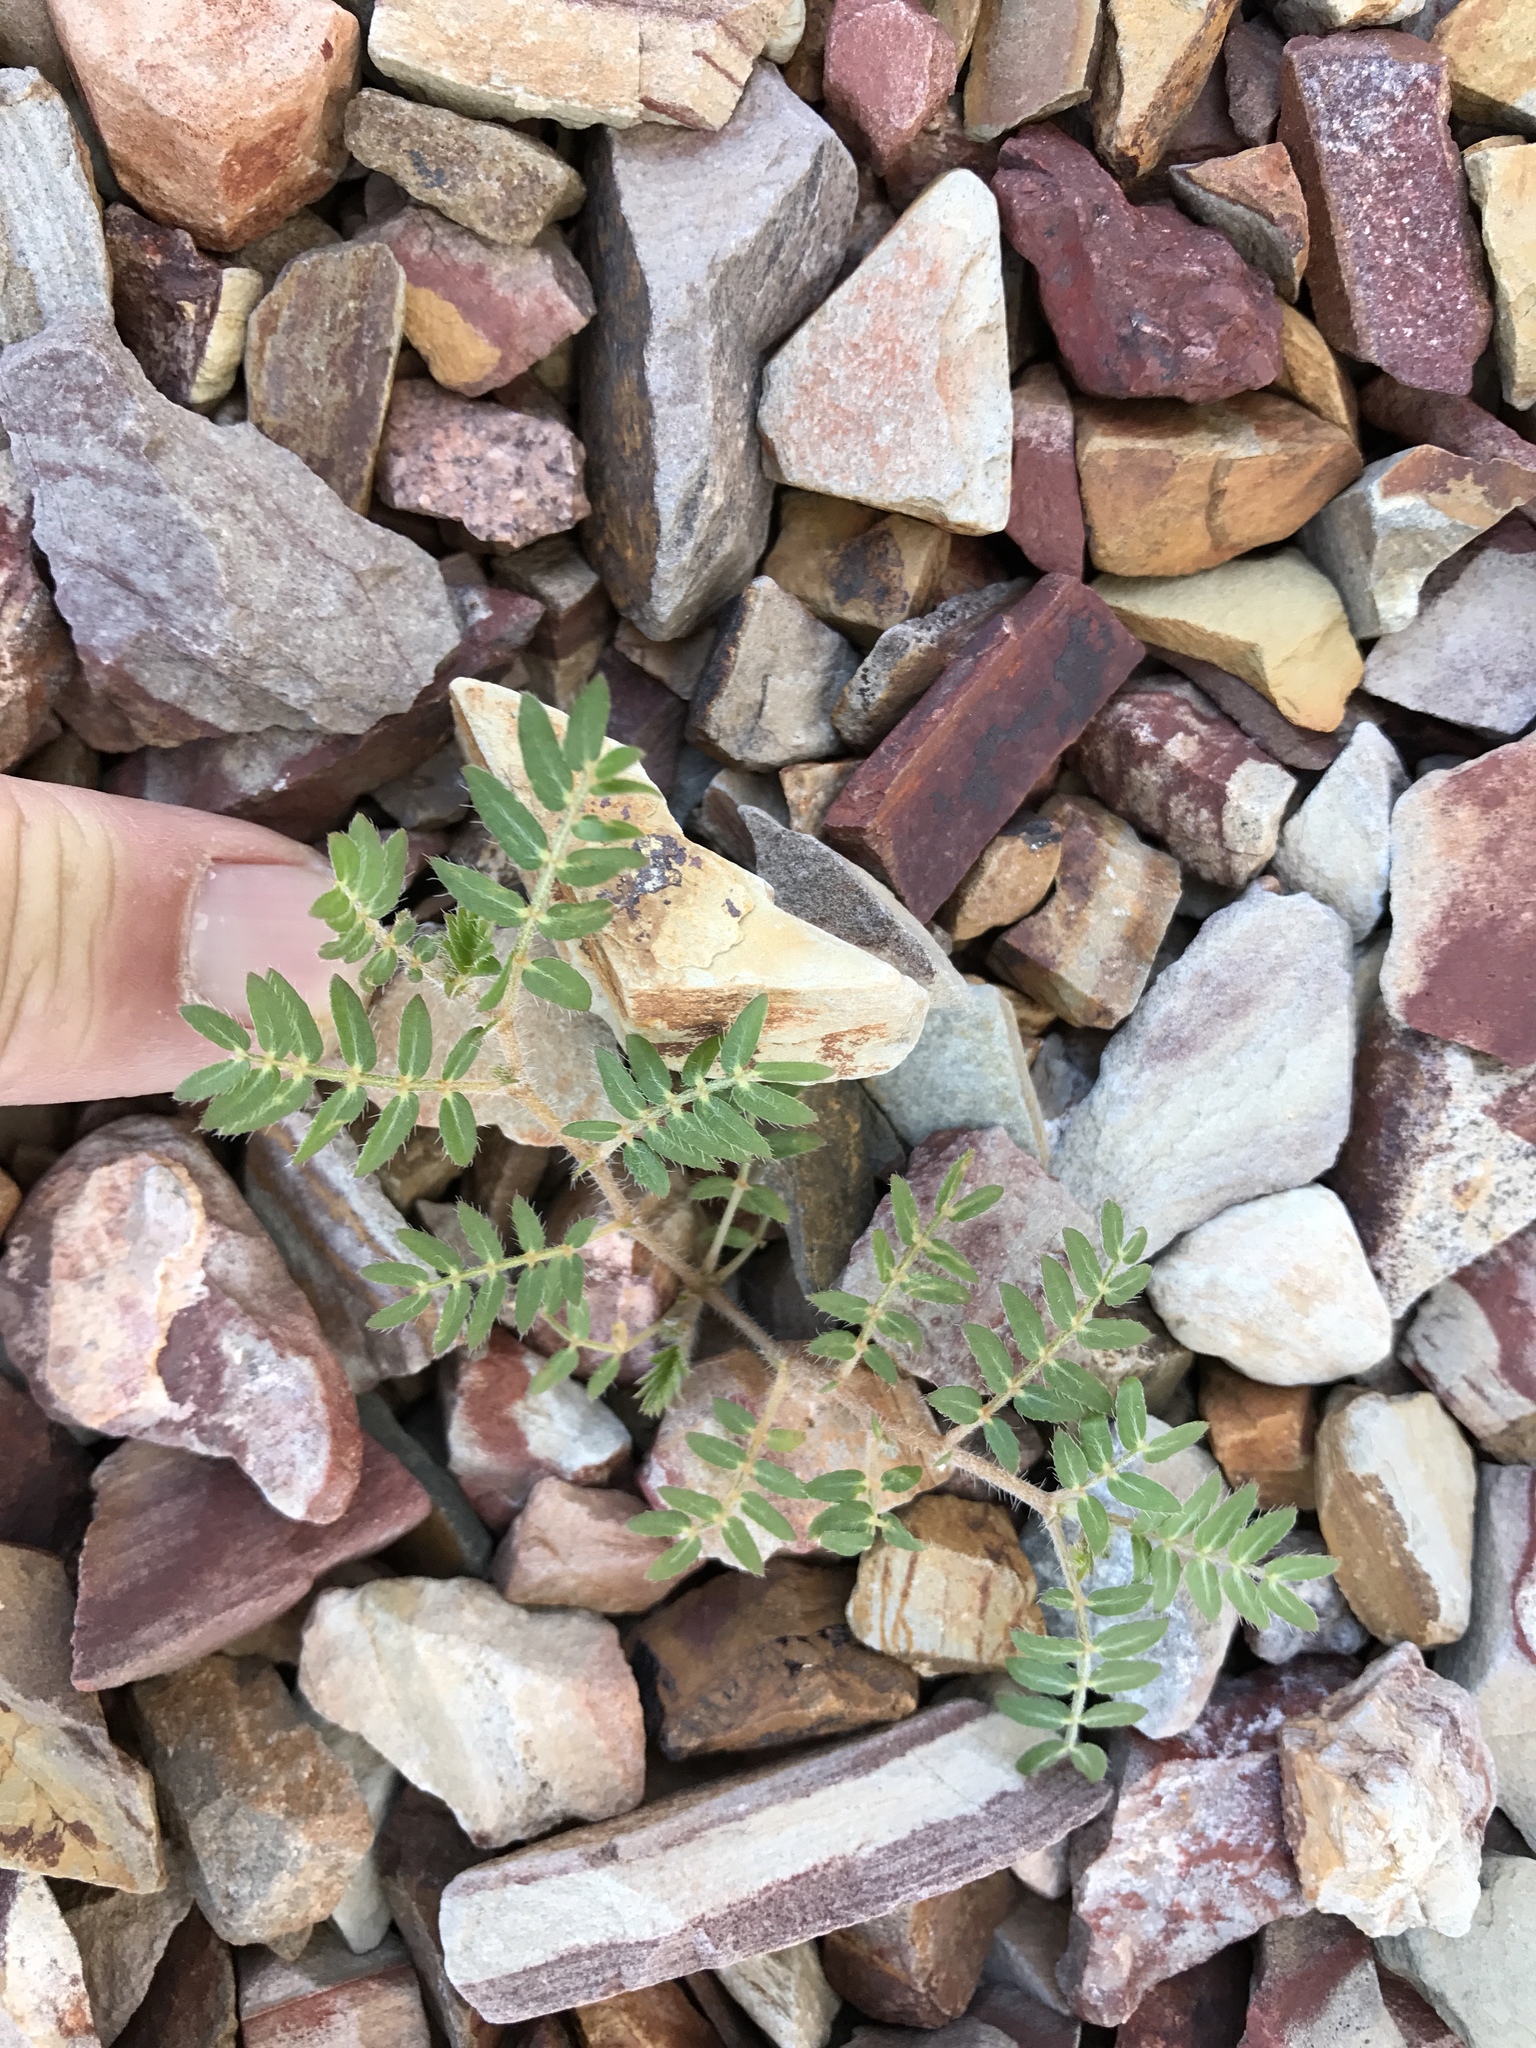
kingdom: Plantae
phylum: Tracheophyta
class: Magnoliopsida
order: Zygophyllales
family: Zygophyllaceae
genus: Tribulus
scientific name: Tribulus terrestris
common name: Puncturevine
